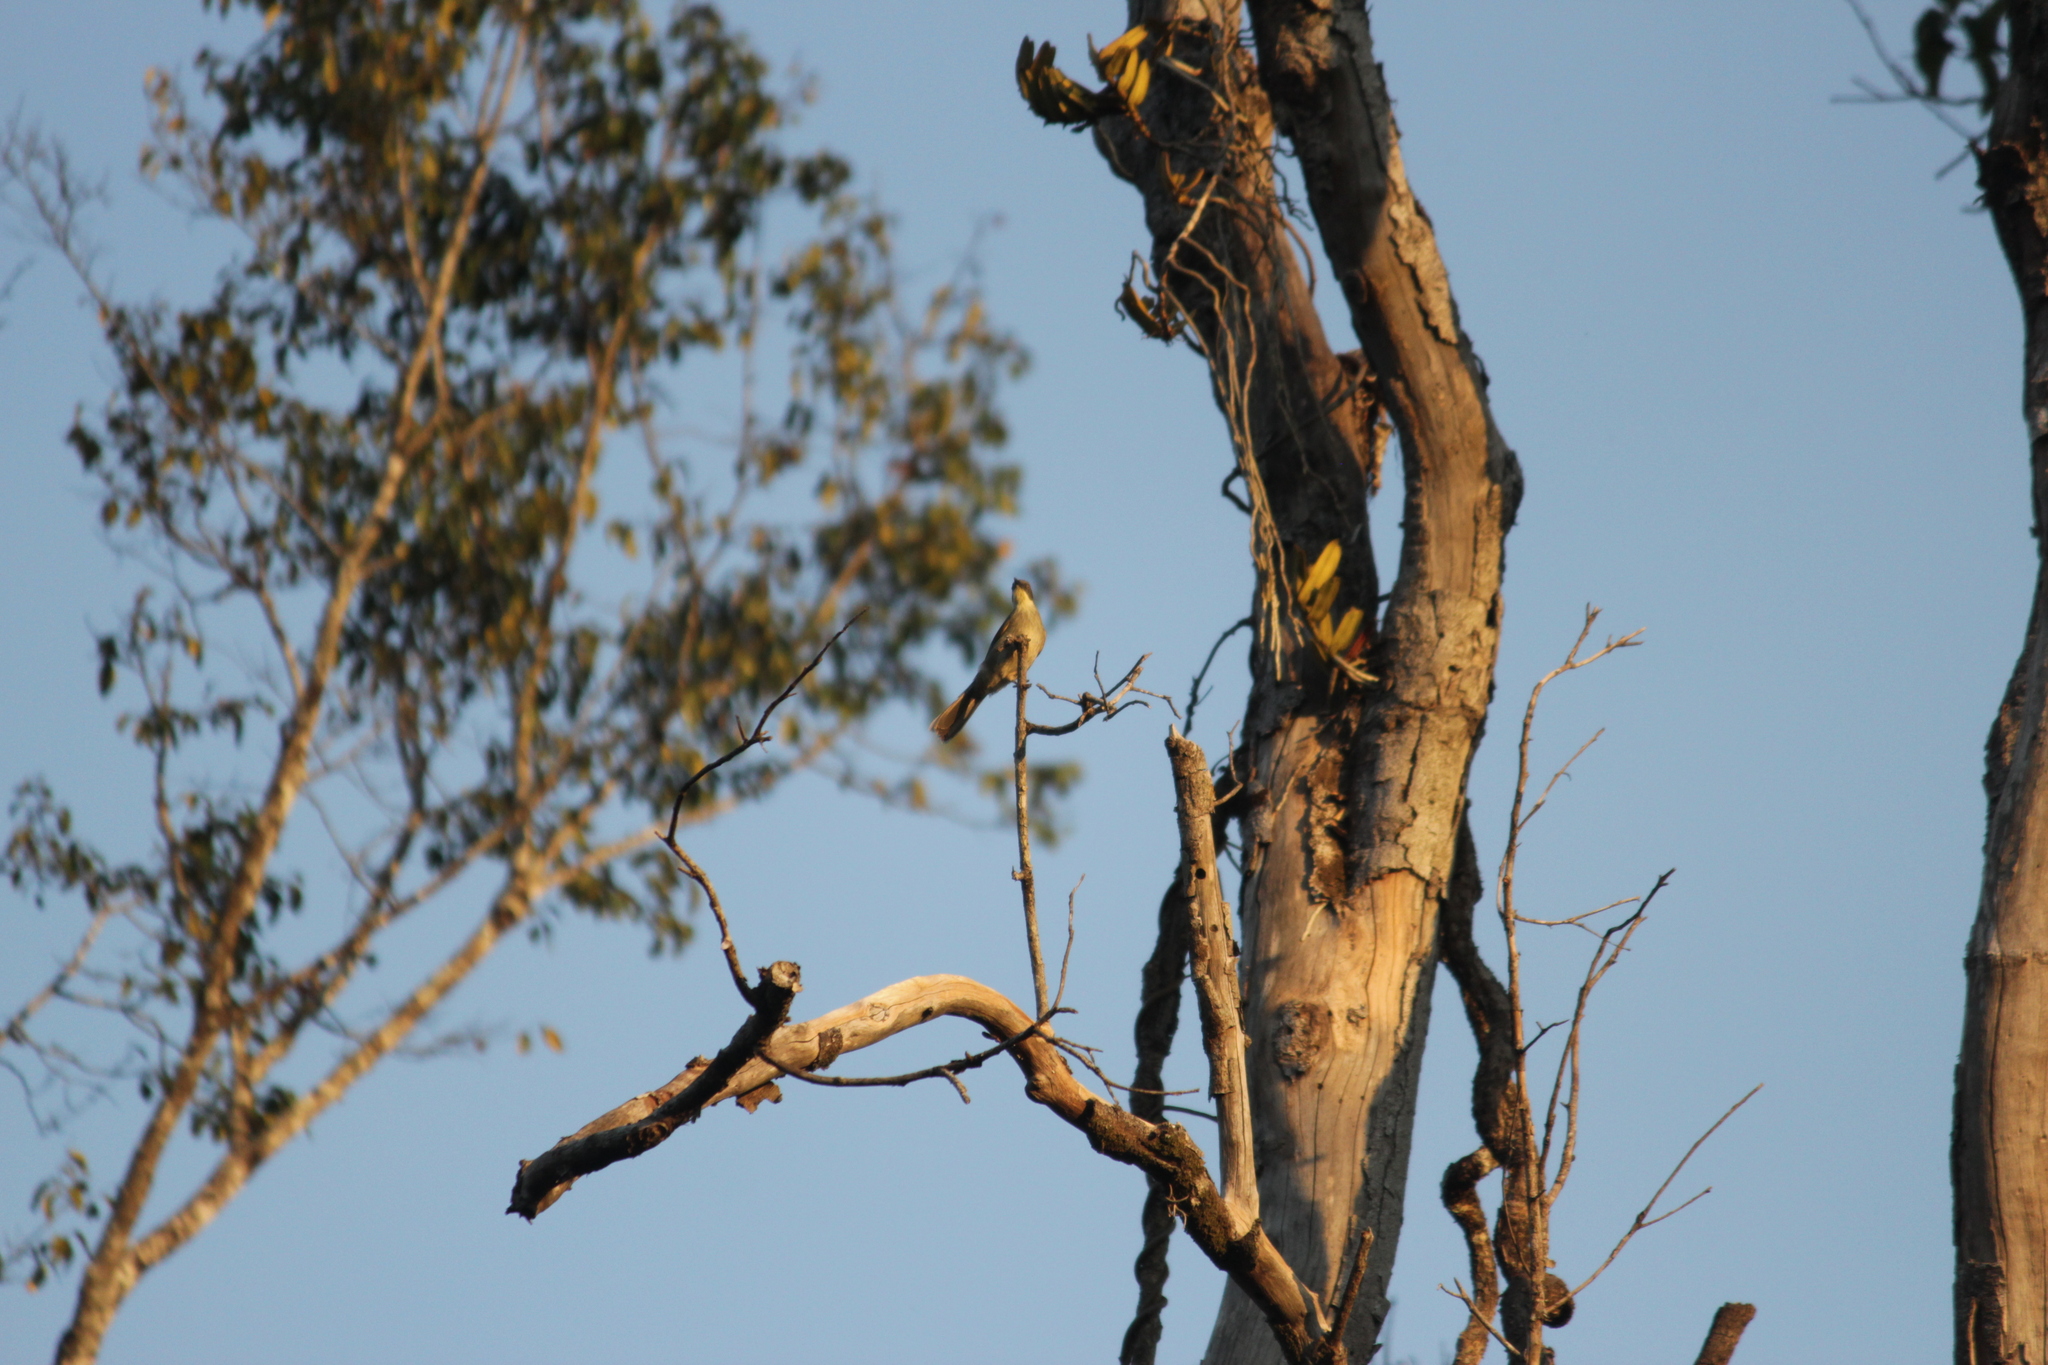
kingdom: Animalia
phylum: Chordata
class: Aves
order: Passeriformes
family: Pycnonotidae
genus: Atimastillas
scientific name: Atimastillas flavicollis
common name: Yellow-throated leaflove
